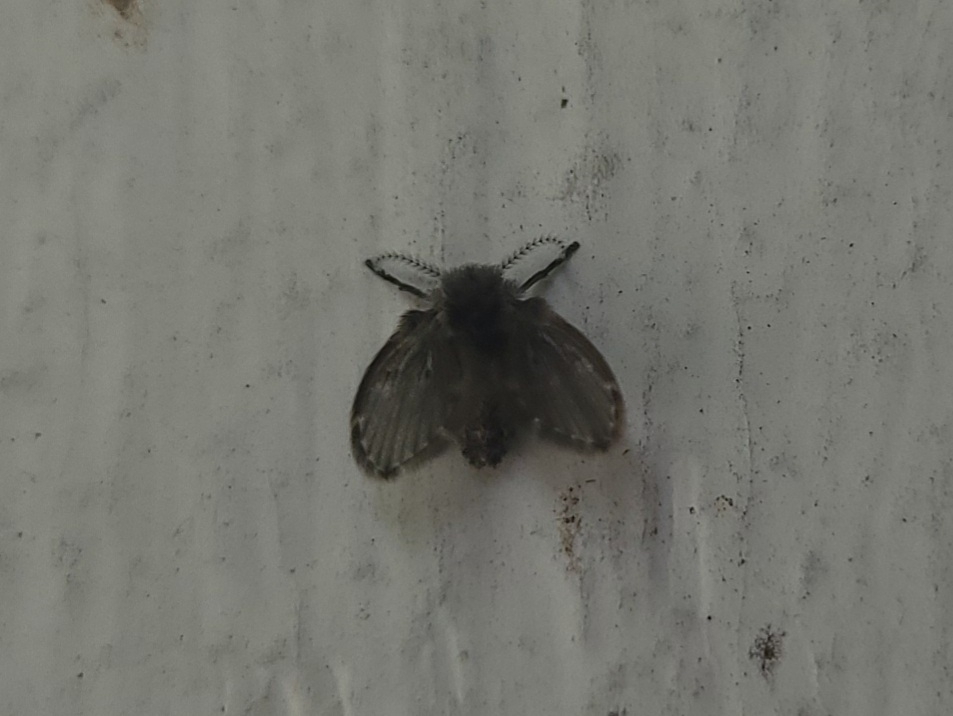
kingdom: Animalia
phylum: Arthropoda
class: Insecta
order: Diptera
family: Psychodidae
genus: Clogmia
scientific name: Clogmia albipunctatus
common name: White-spotted moth fly
